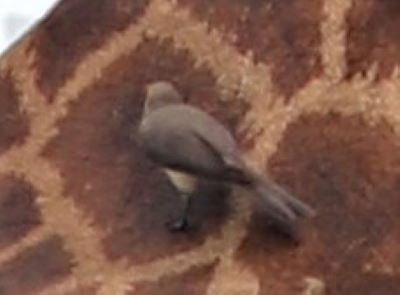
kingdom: Animalia
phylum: Chordata
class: Aves
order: Passeriformes
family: Buphagidae
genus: Buphagus
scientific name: Buphagus erythrorhynchus
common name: Red-billed oxpecker
